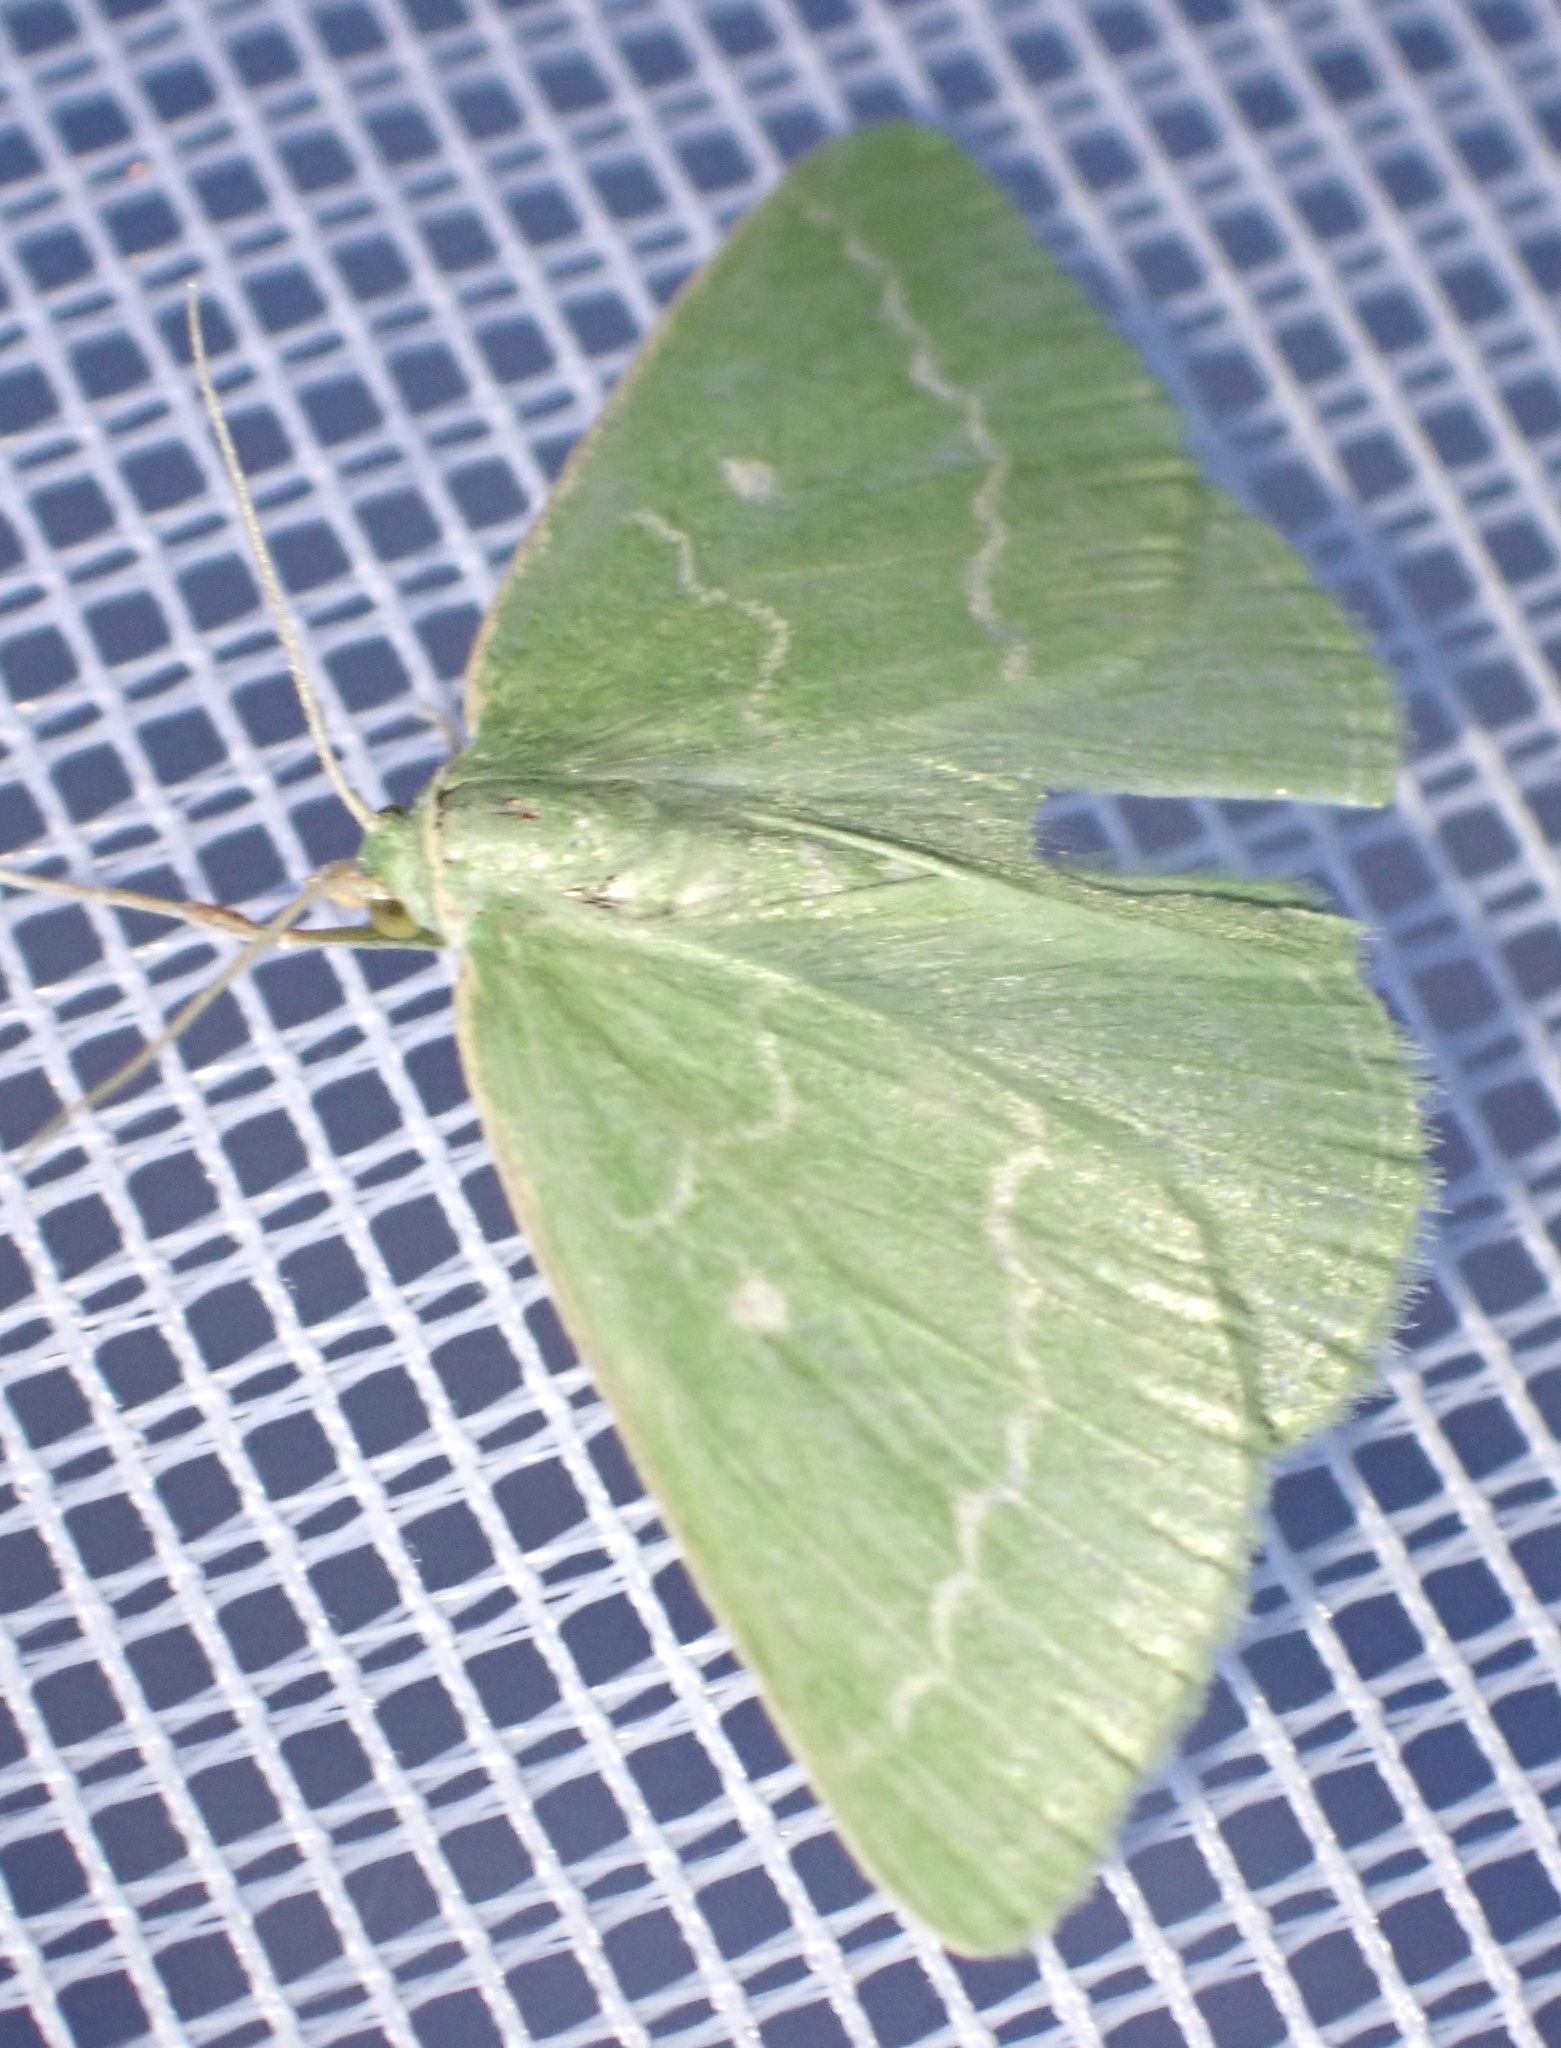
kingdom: Animalia
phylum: Arthropoda
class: Insecta
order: Lepidoptera
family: Geometridae
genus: Thetidia
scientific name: Thetidia smaragdaria
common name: Essex emerald
